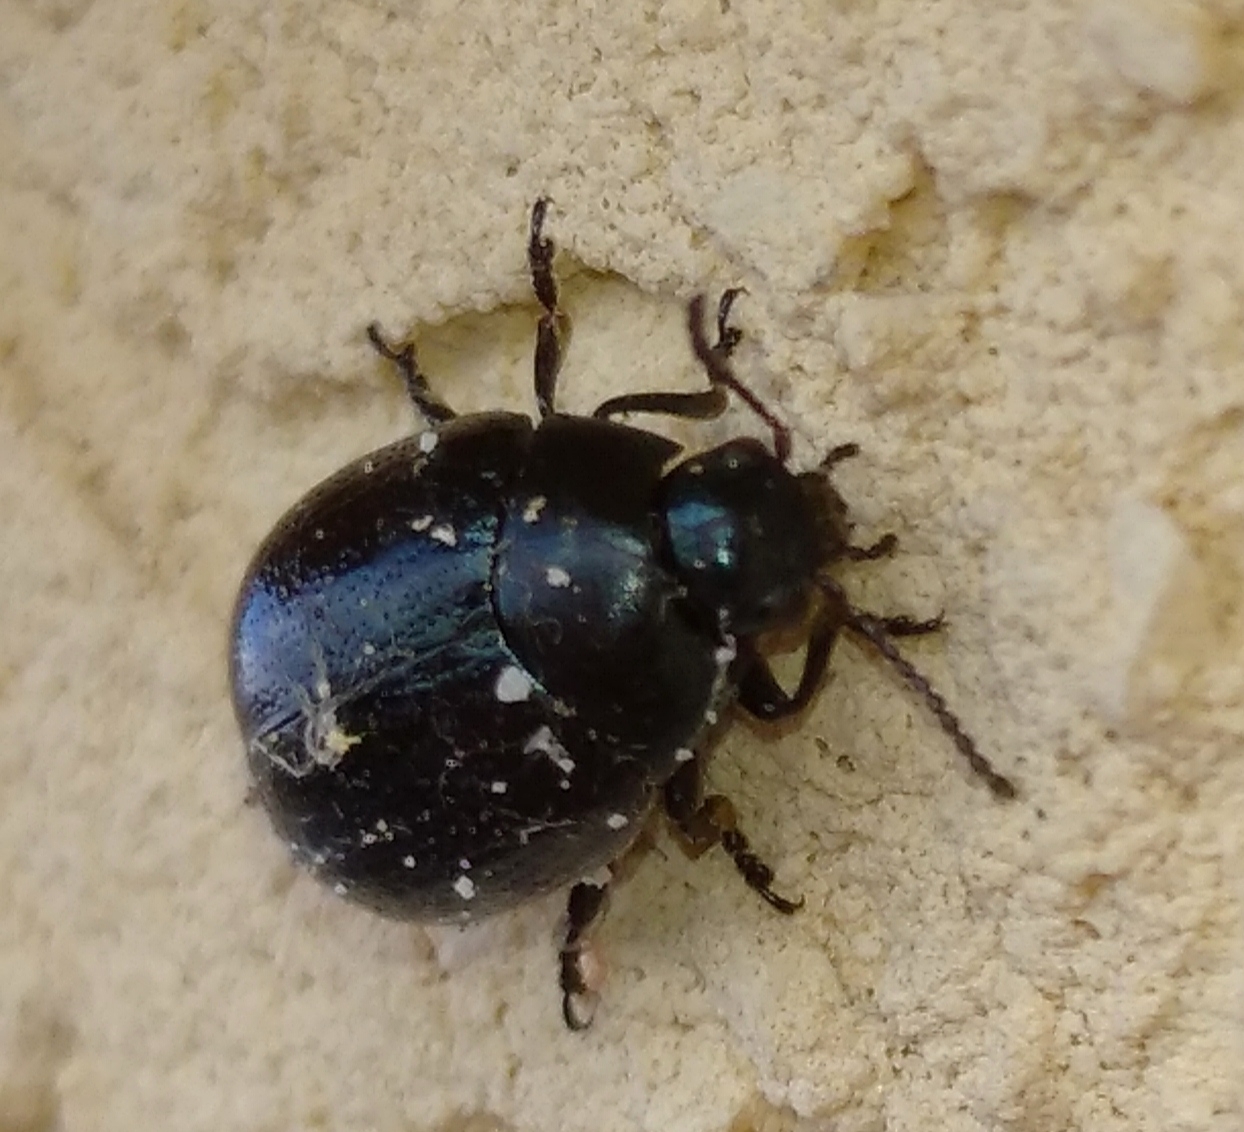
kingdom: Animalia
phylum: Arthropoda
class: Insecta
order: Coleoptera
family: Chrysomelidae
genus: Chrysolina
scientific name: Chrysolina haemoptera
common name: Plantain leaf beetle
